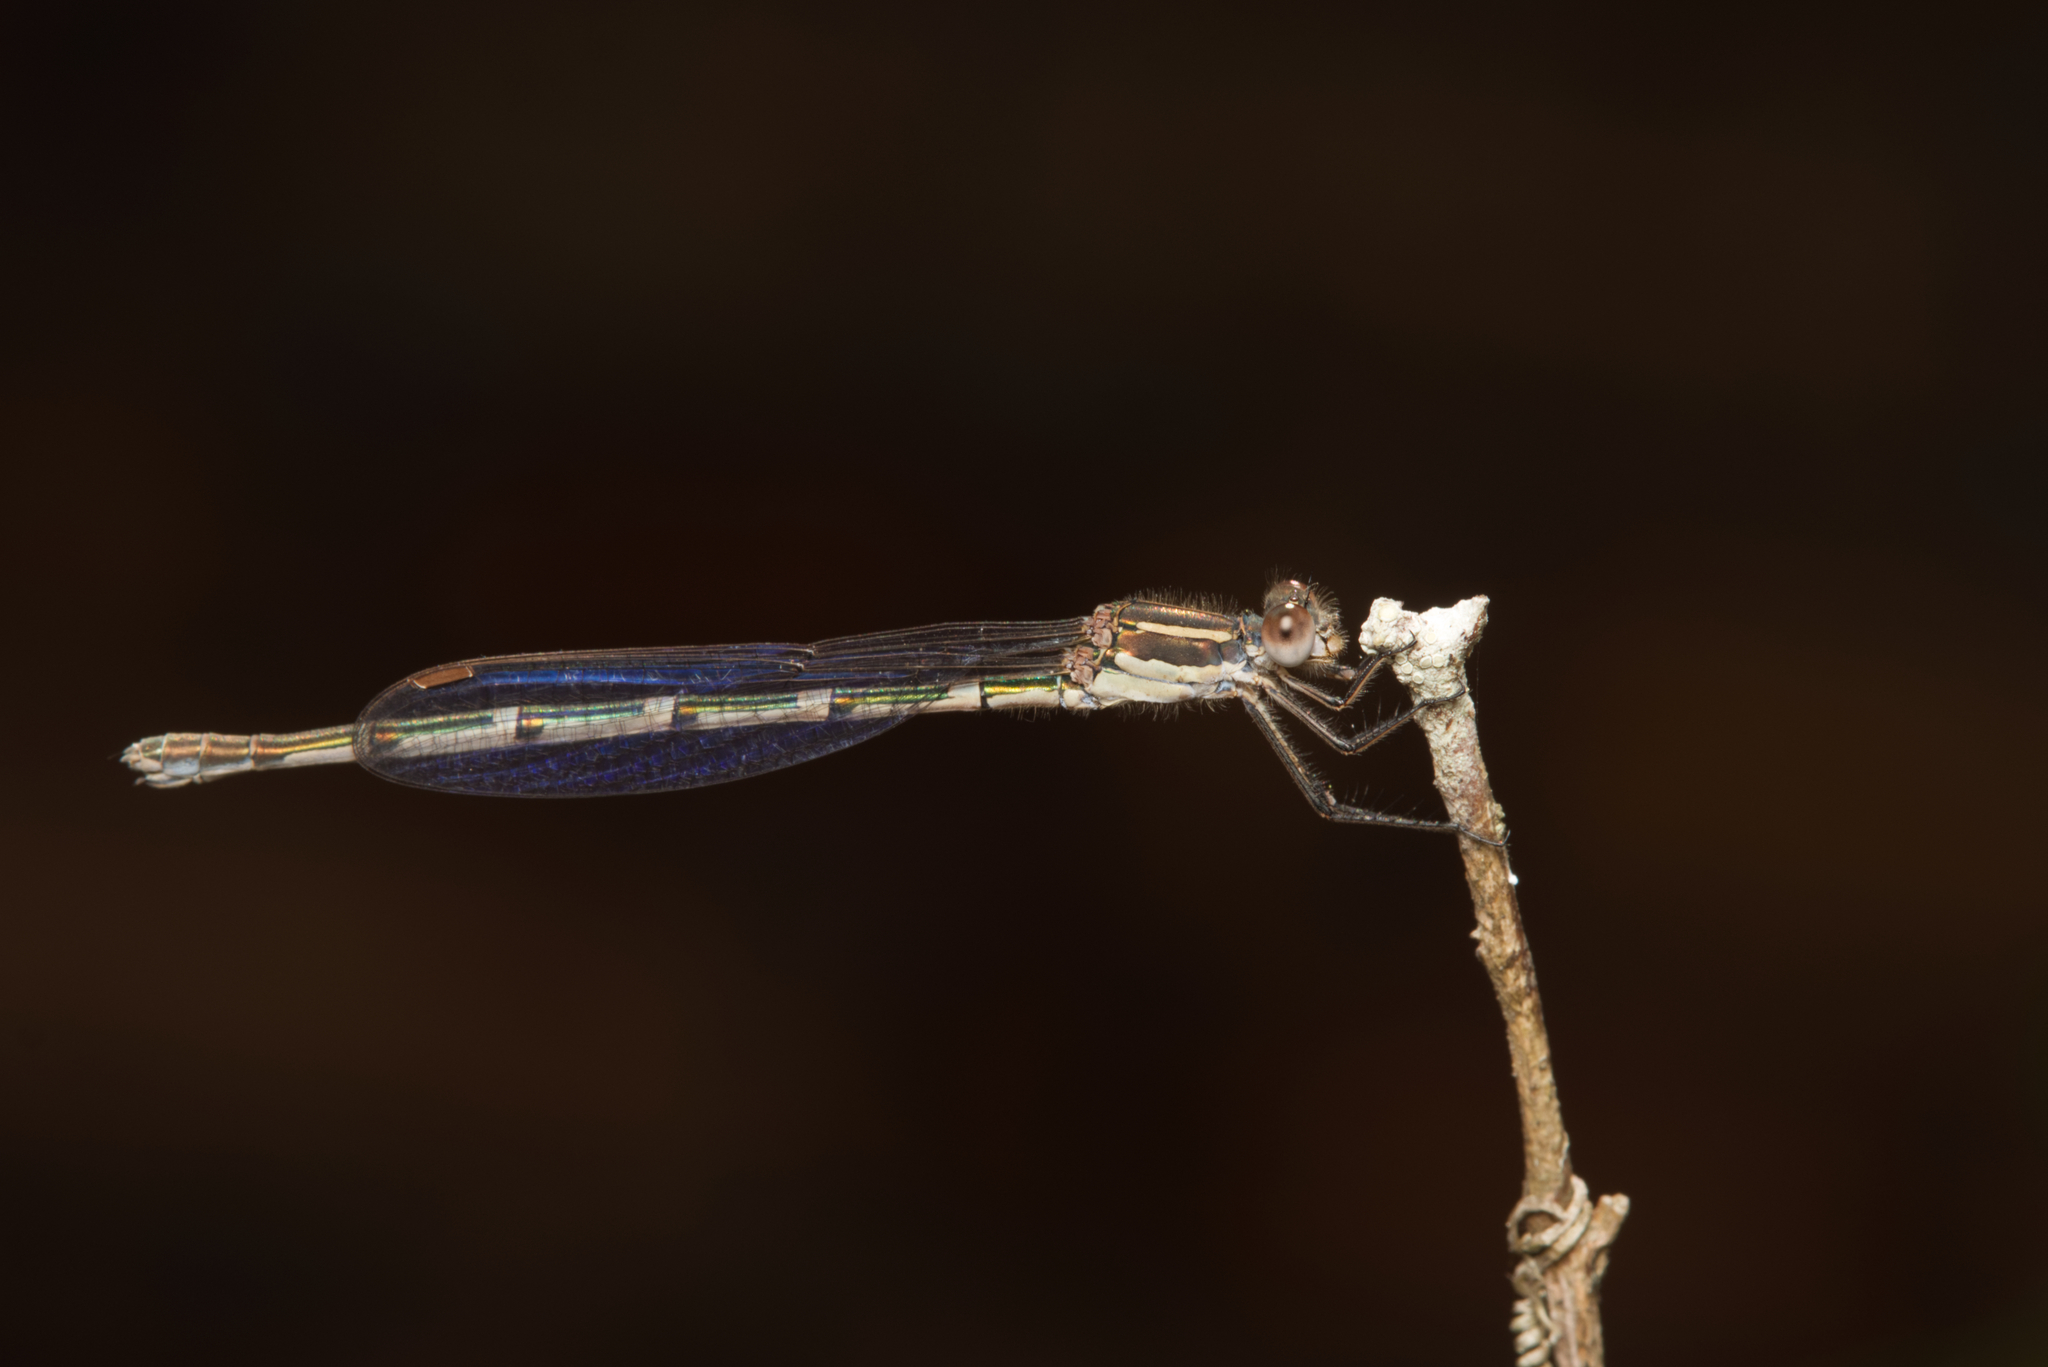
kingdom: Animalia
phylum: Arthropoda
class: Insecta
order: Odonata
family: Lestidae
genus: Austrolestes
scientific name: Austrolestes leda
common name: Wandering ringtail
